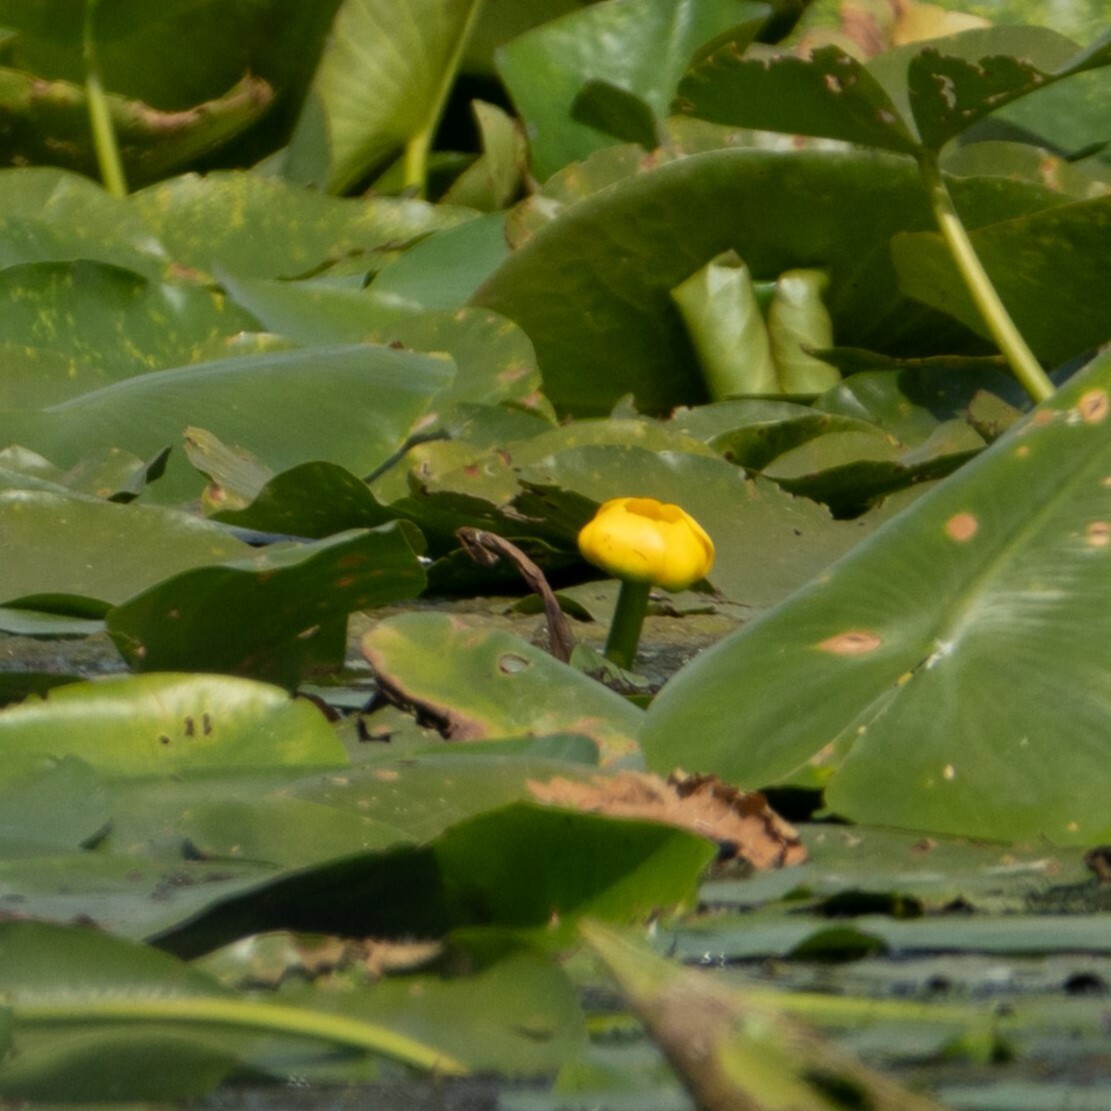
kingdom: Plantae
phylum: Tracheophyta
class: Magnoliopsida
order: Nymphaeales
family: Nymphaeaceae
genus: Nuphar
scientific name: Nuphar lutea
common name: Yellow water-lily
